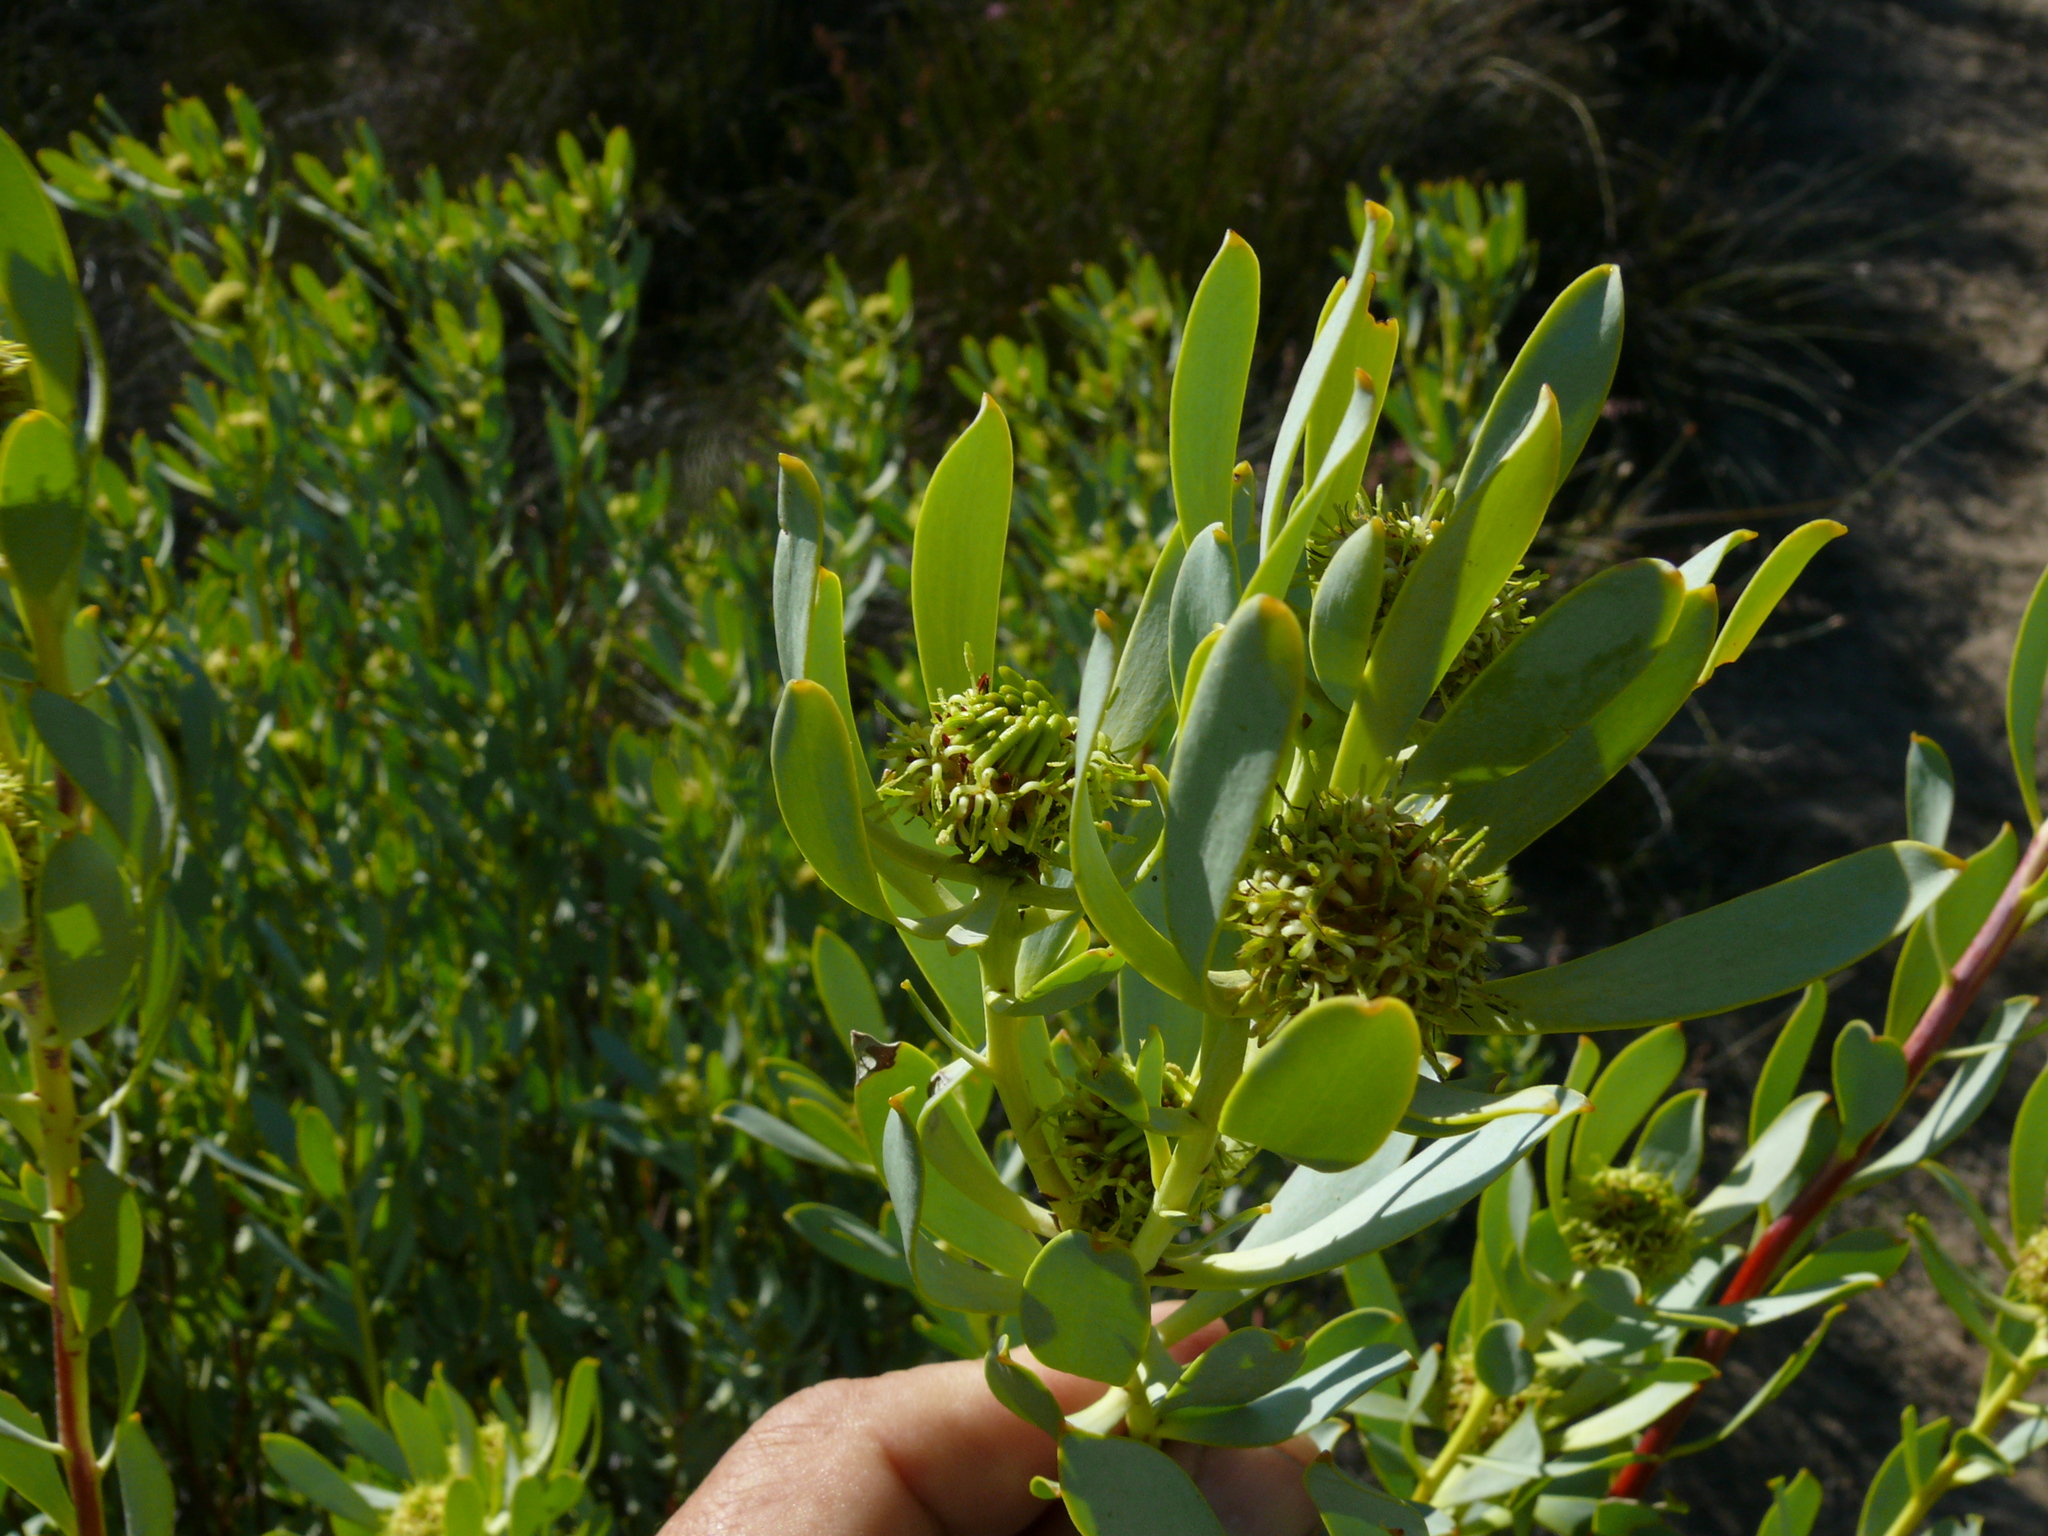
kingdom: Plantae
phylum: Tracheophyta
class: Magnoliopsida
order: Proteales
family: Proteaceae
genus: Leucadendron
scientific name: Leucadendron loranthifolium
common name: Green-flower sunbush
